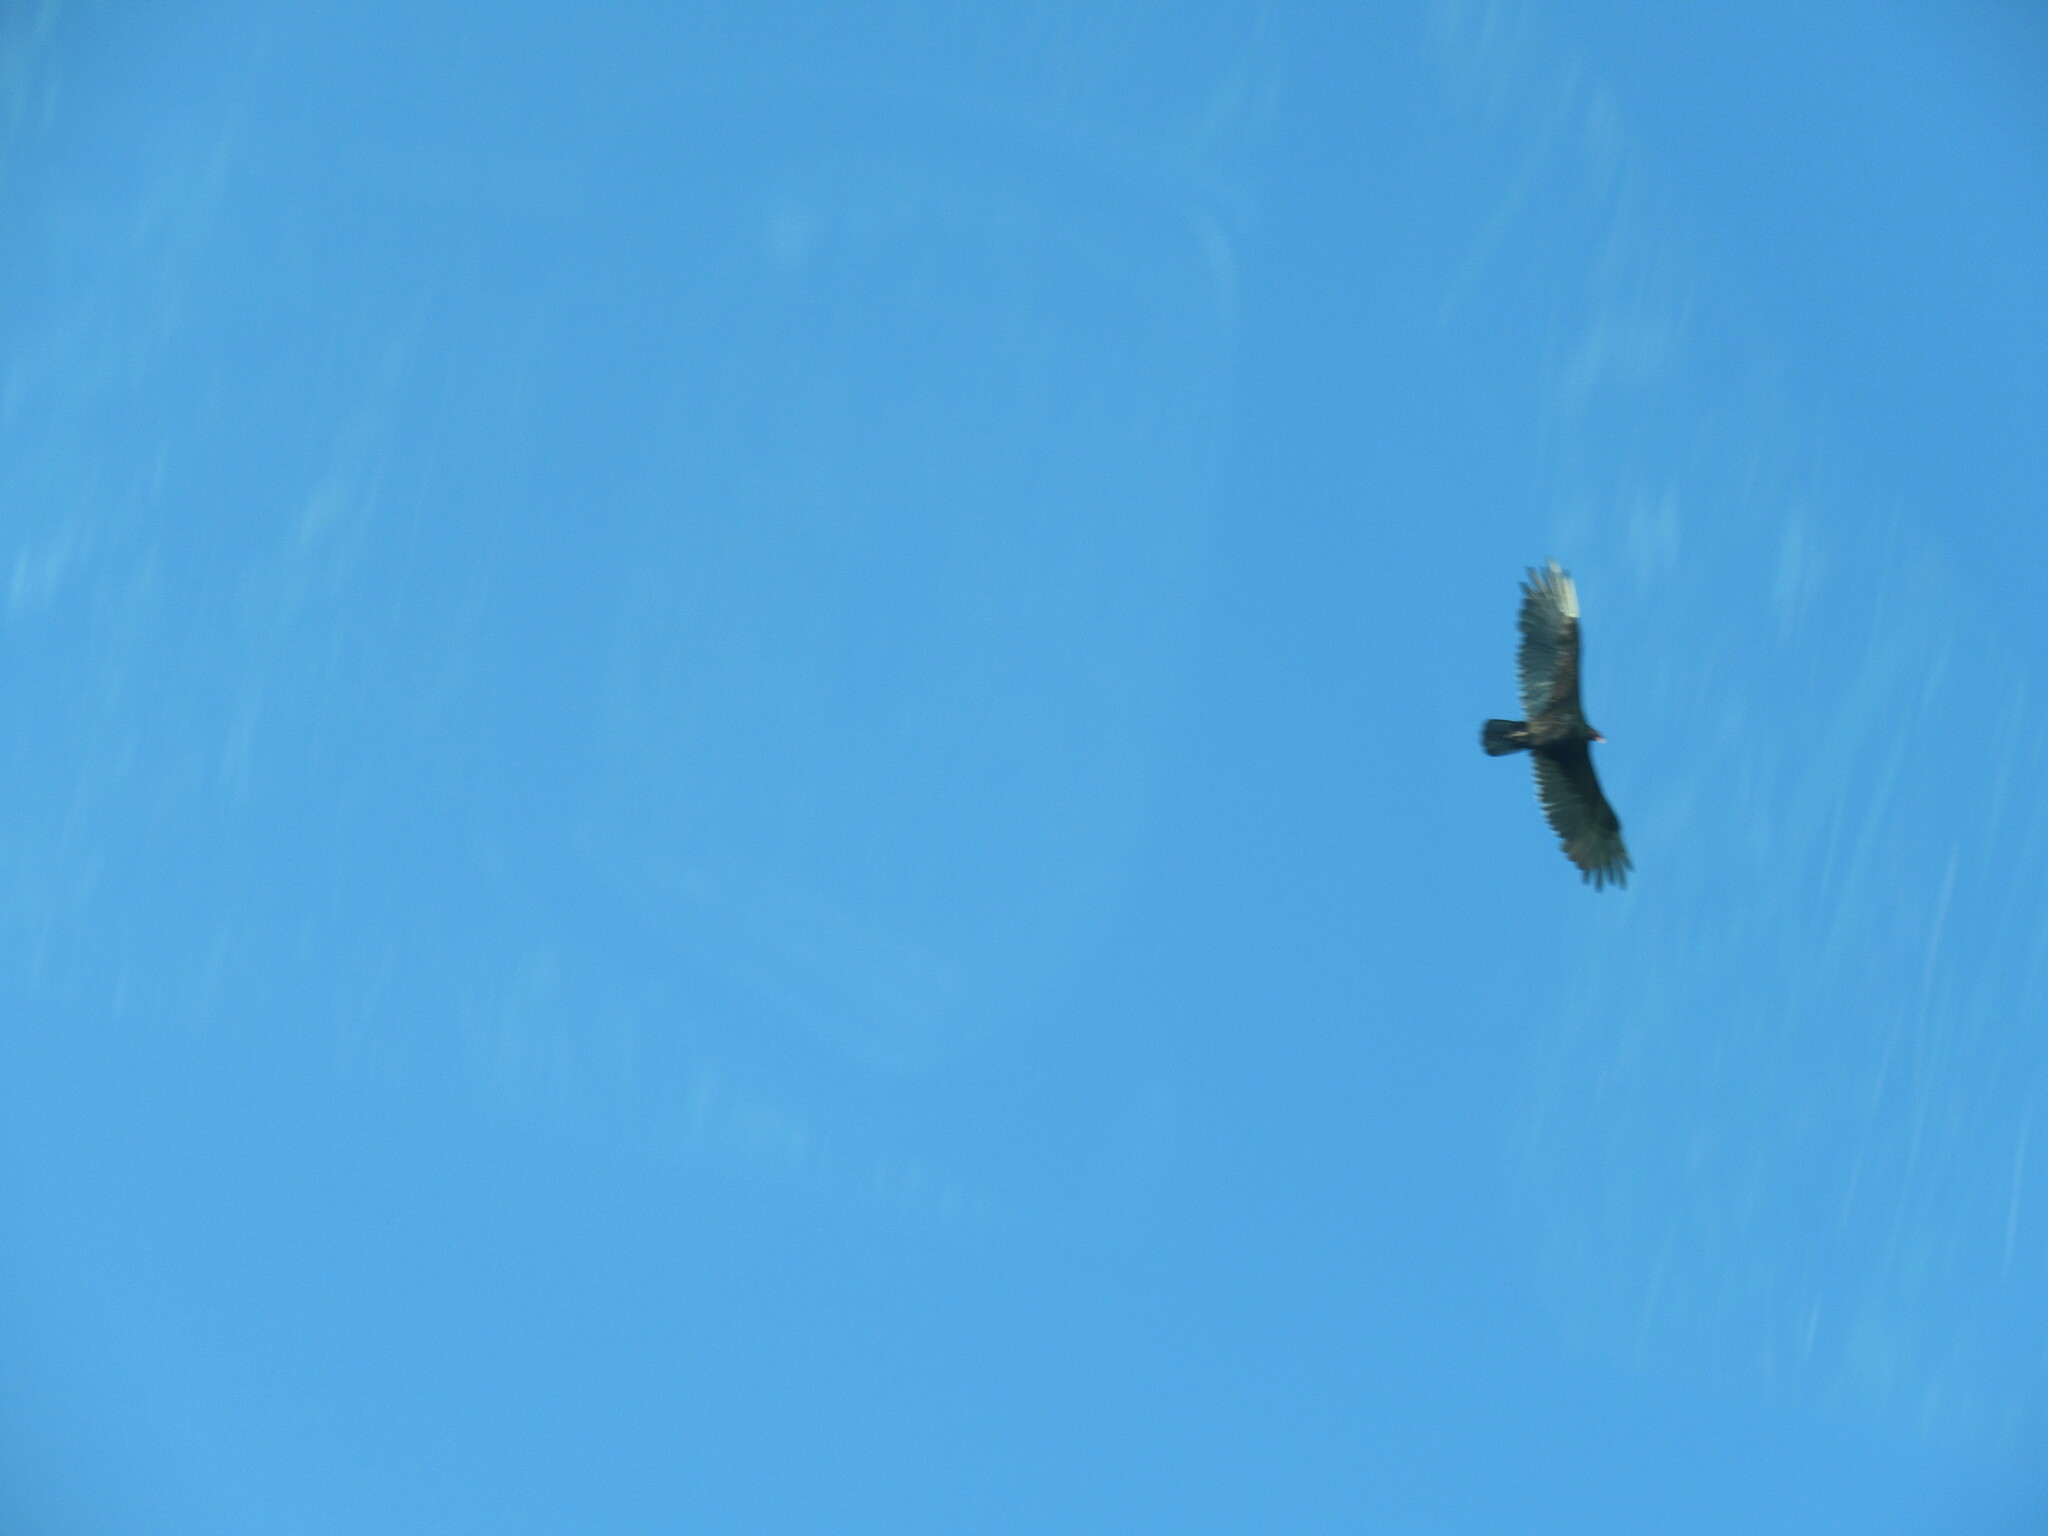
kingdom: Animalia
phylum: Chordata
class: Aves
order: Accipitriformes
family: Cathartidae
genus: Cathartes
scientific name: Cathartes aura
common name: Turkey vulture
